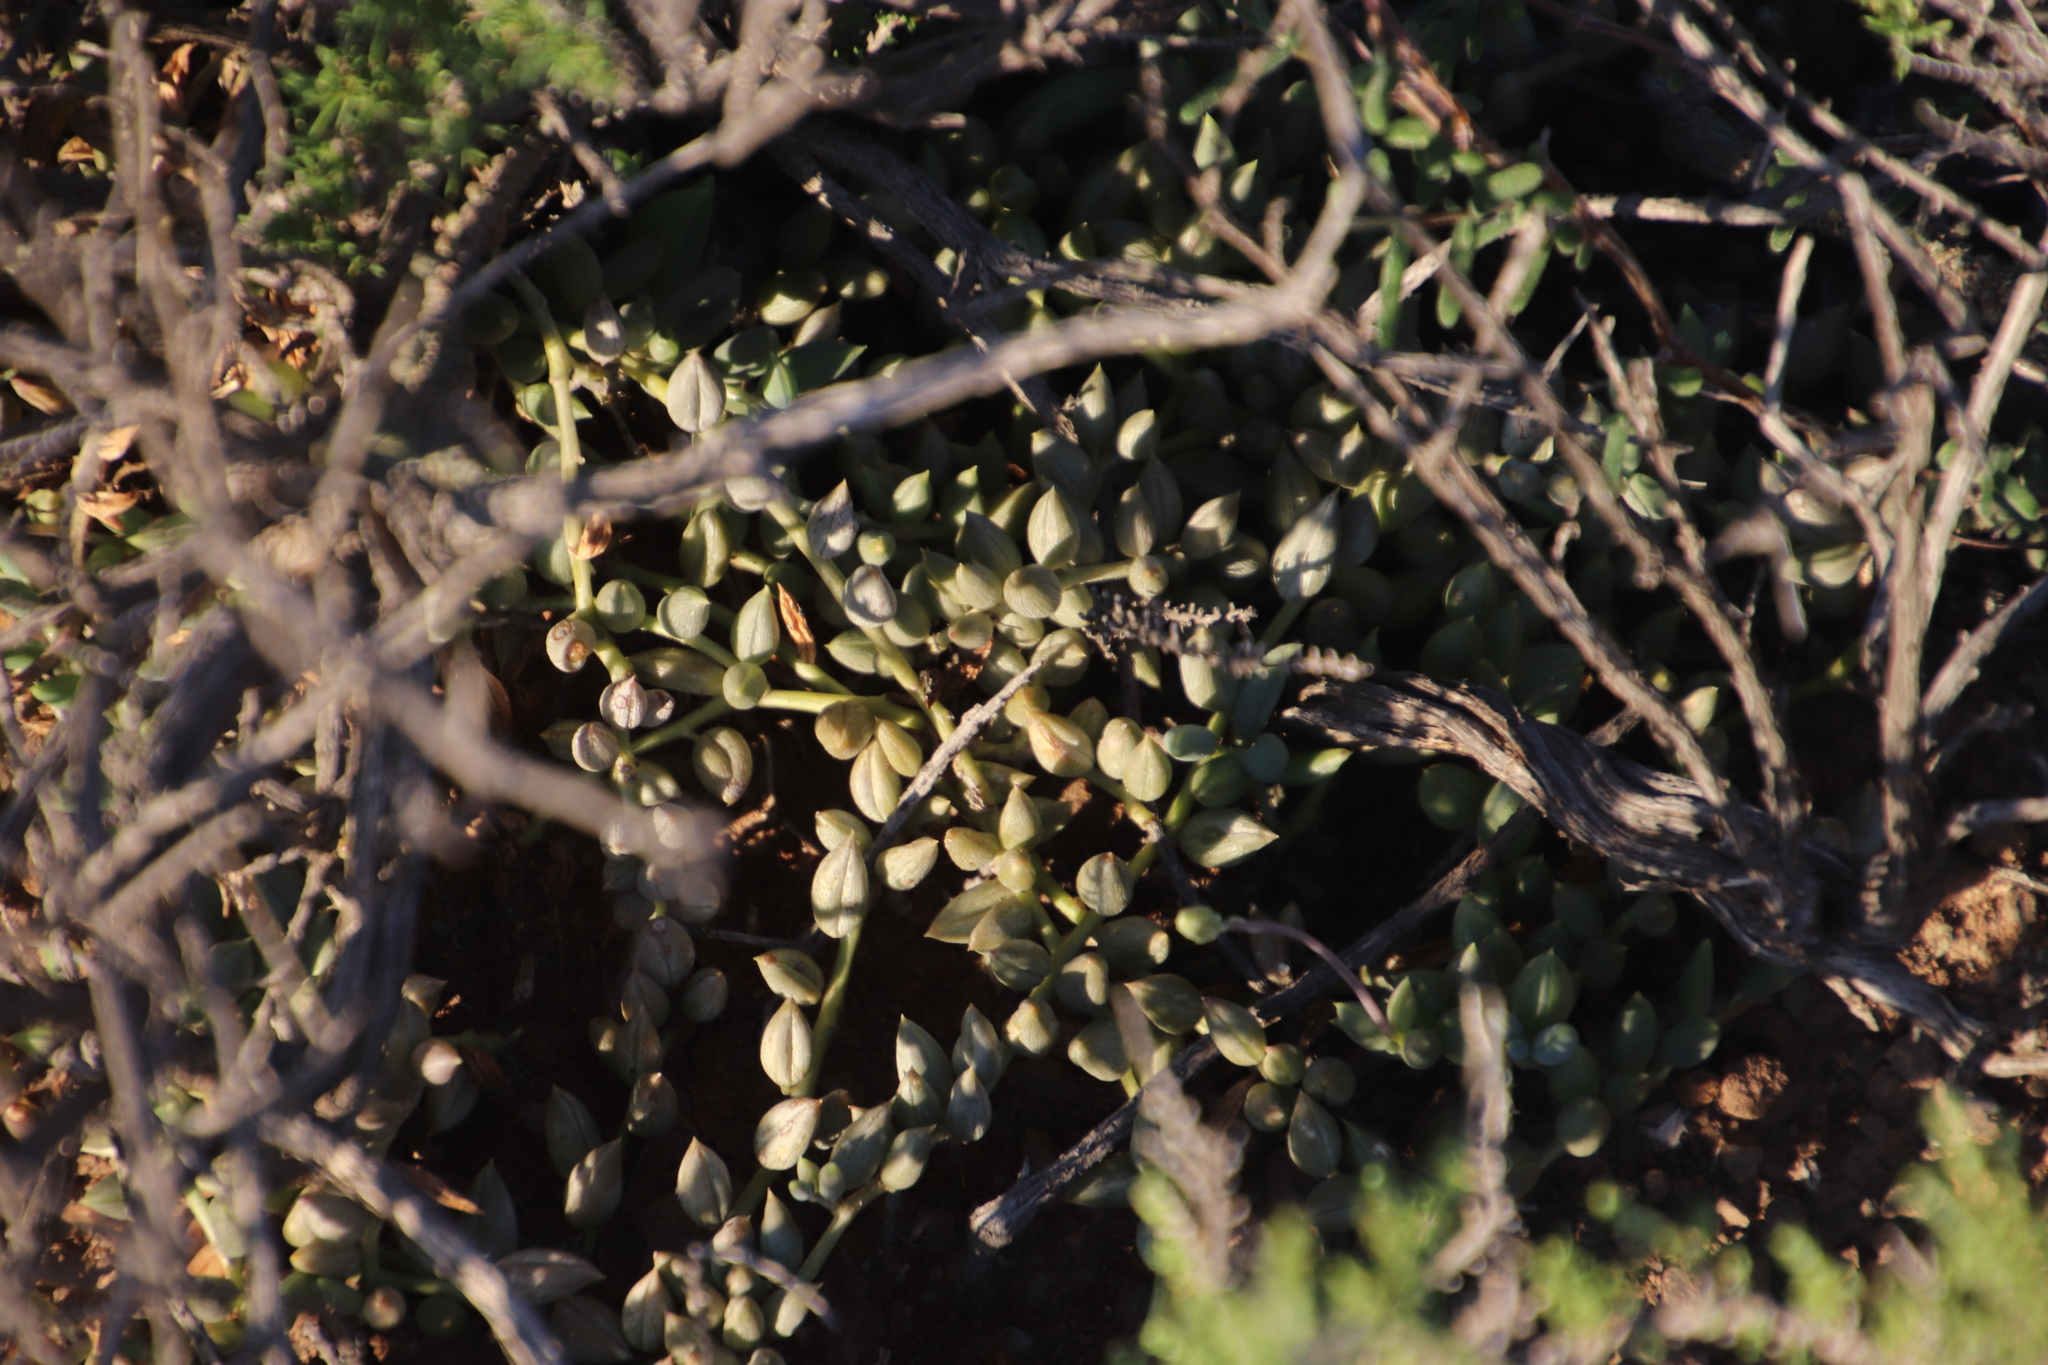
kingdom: Plantae
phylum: Tracheophyta
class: Magnoliopsida
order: Asterales
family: Asteraceae
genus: Curio
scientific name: Curio radicans
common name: Creeping-berry
